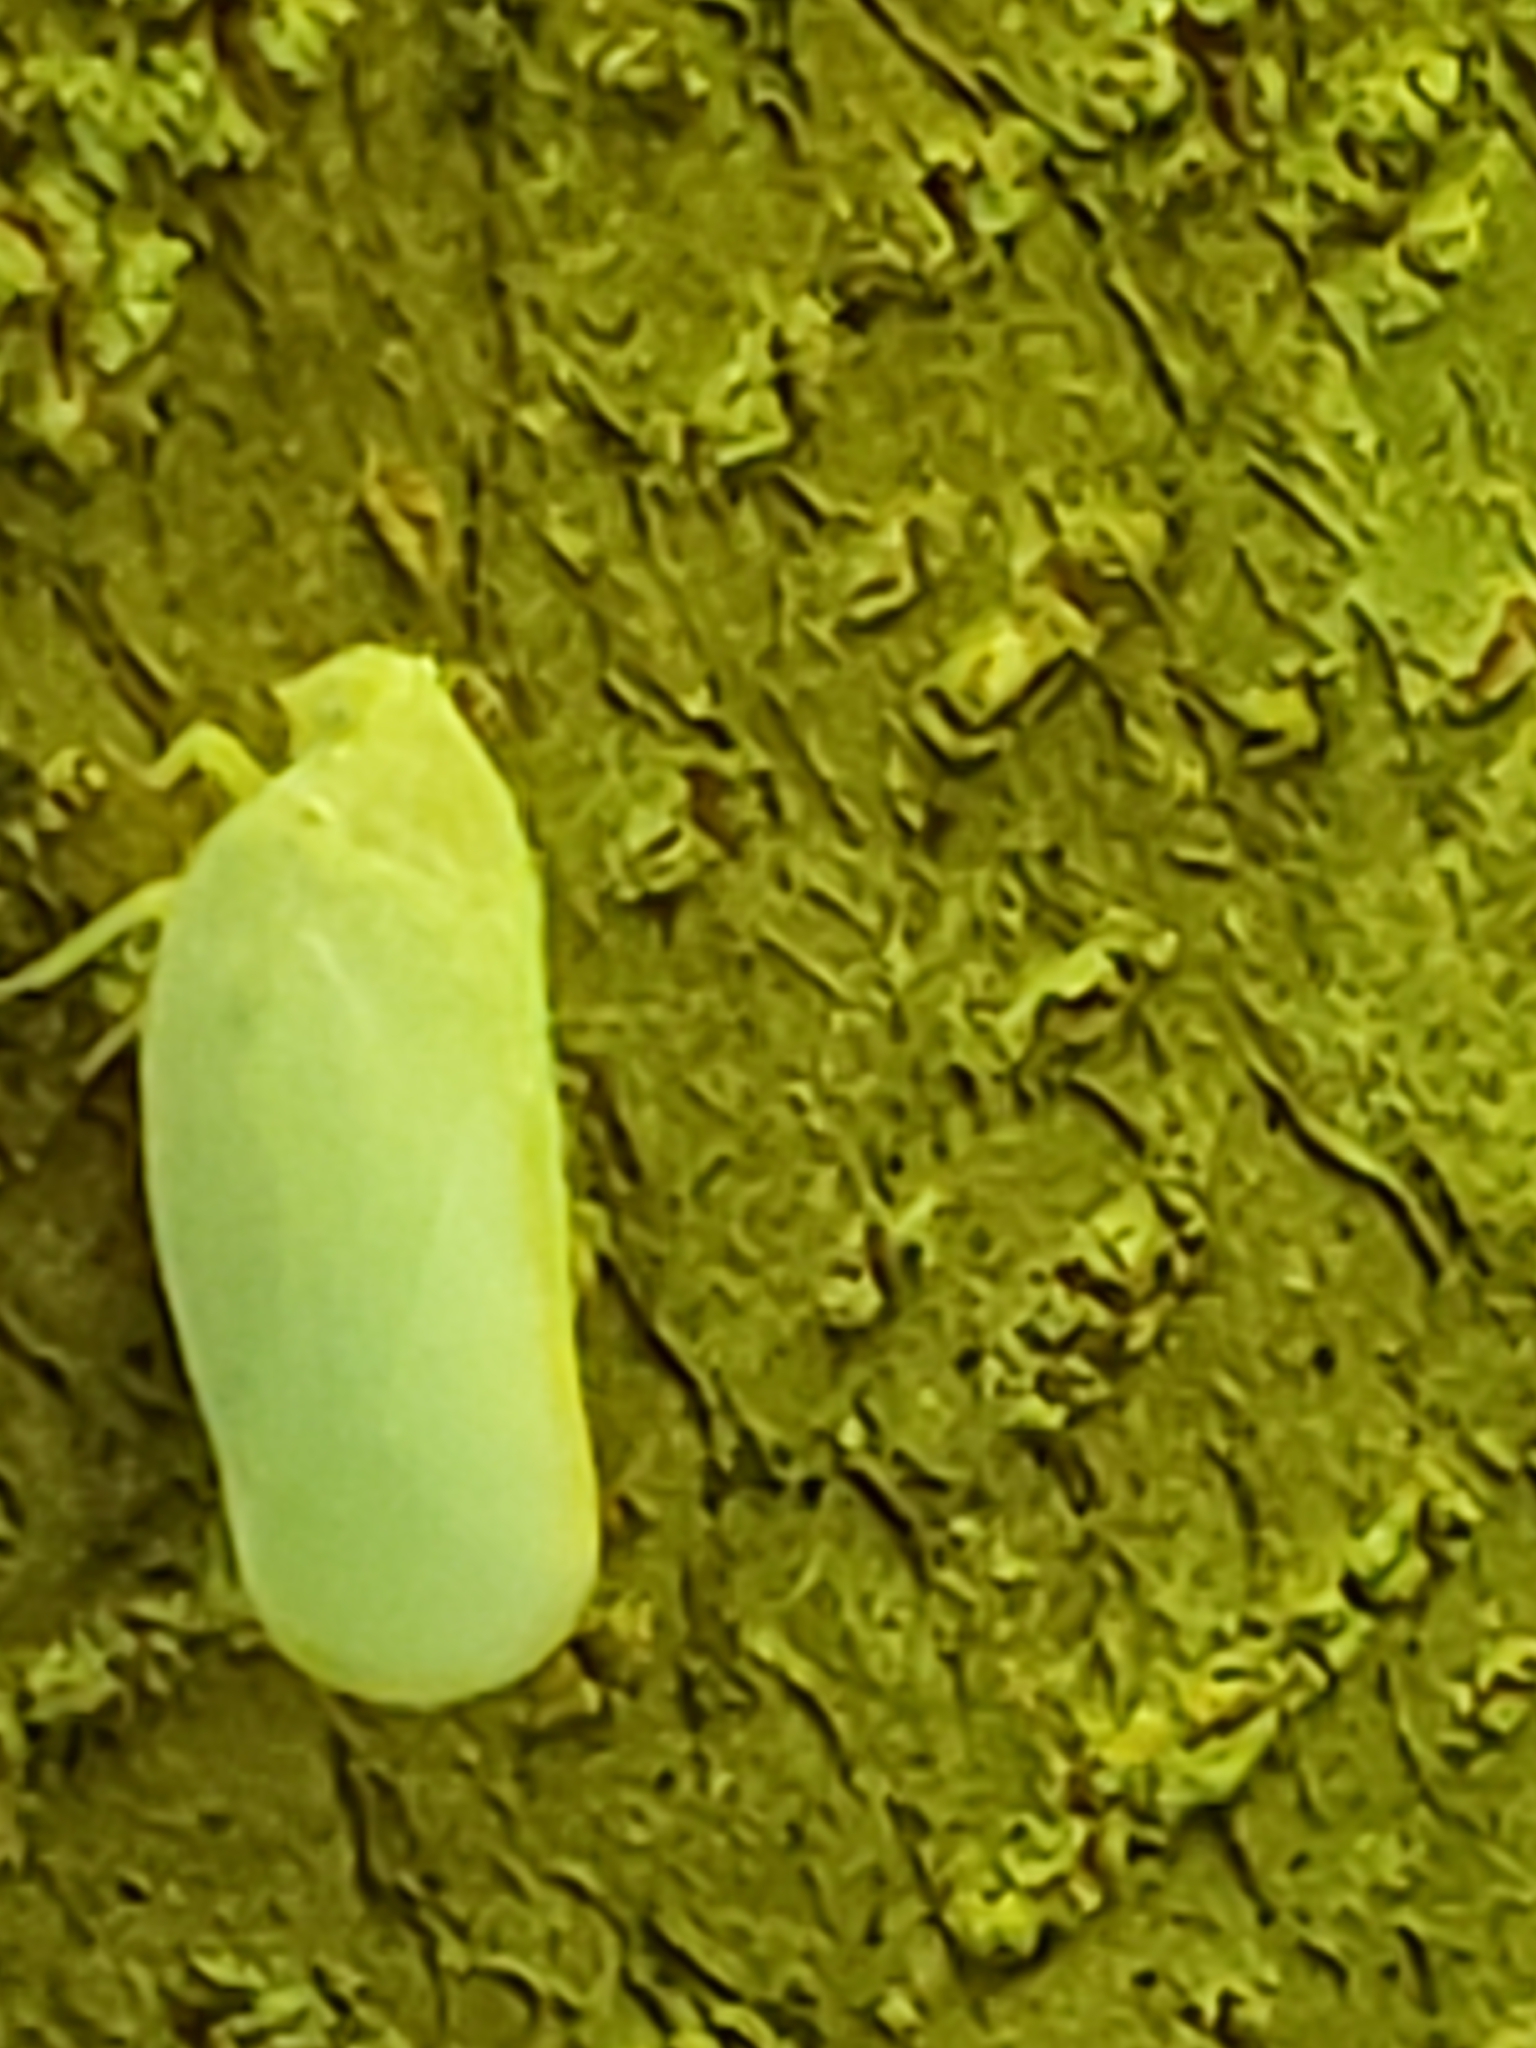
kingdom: Animalia
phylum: Arthropoda
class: Insecta
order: Hemiptera
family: Flatidae
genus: Ormenoides
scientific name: Ormenoides venusta
